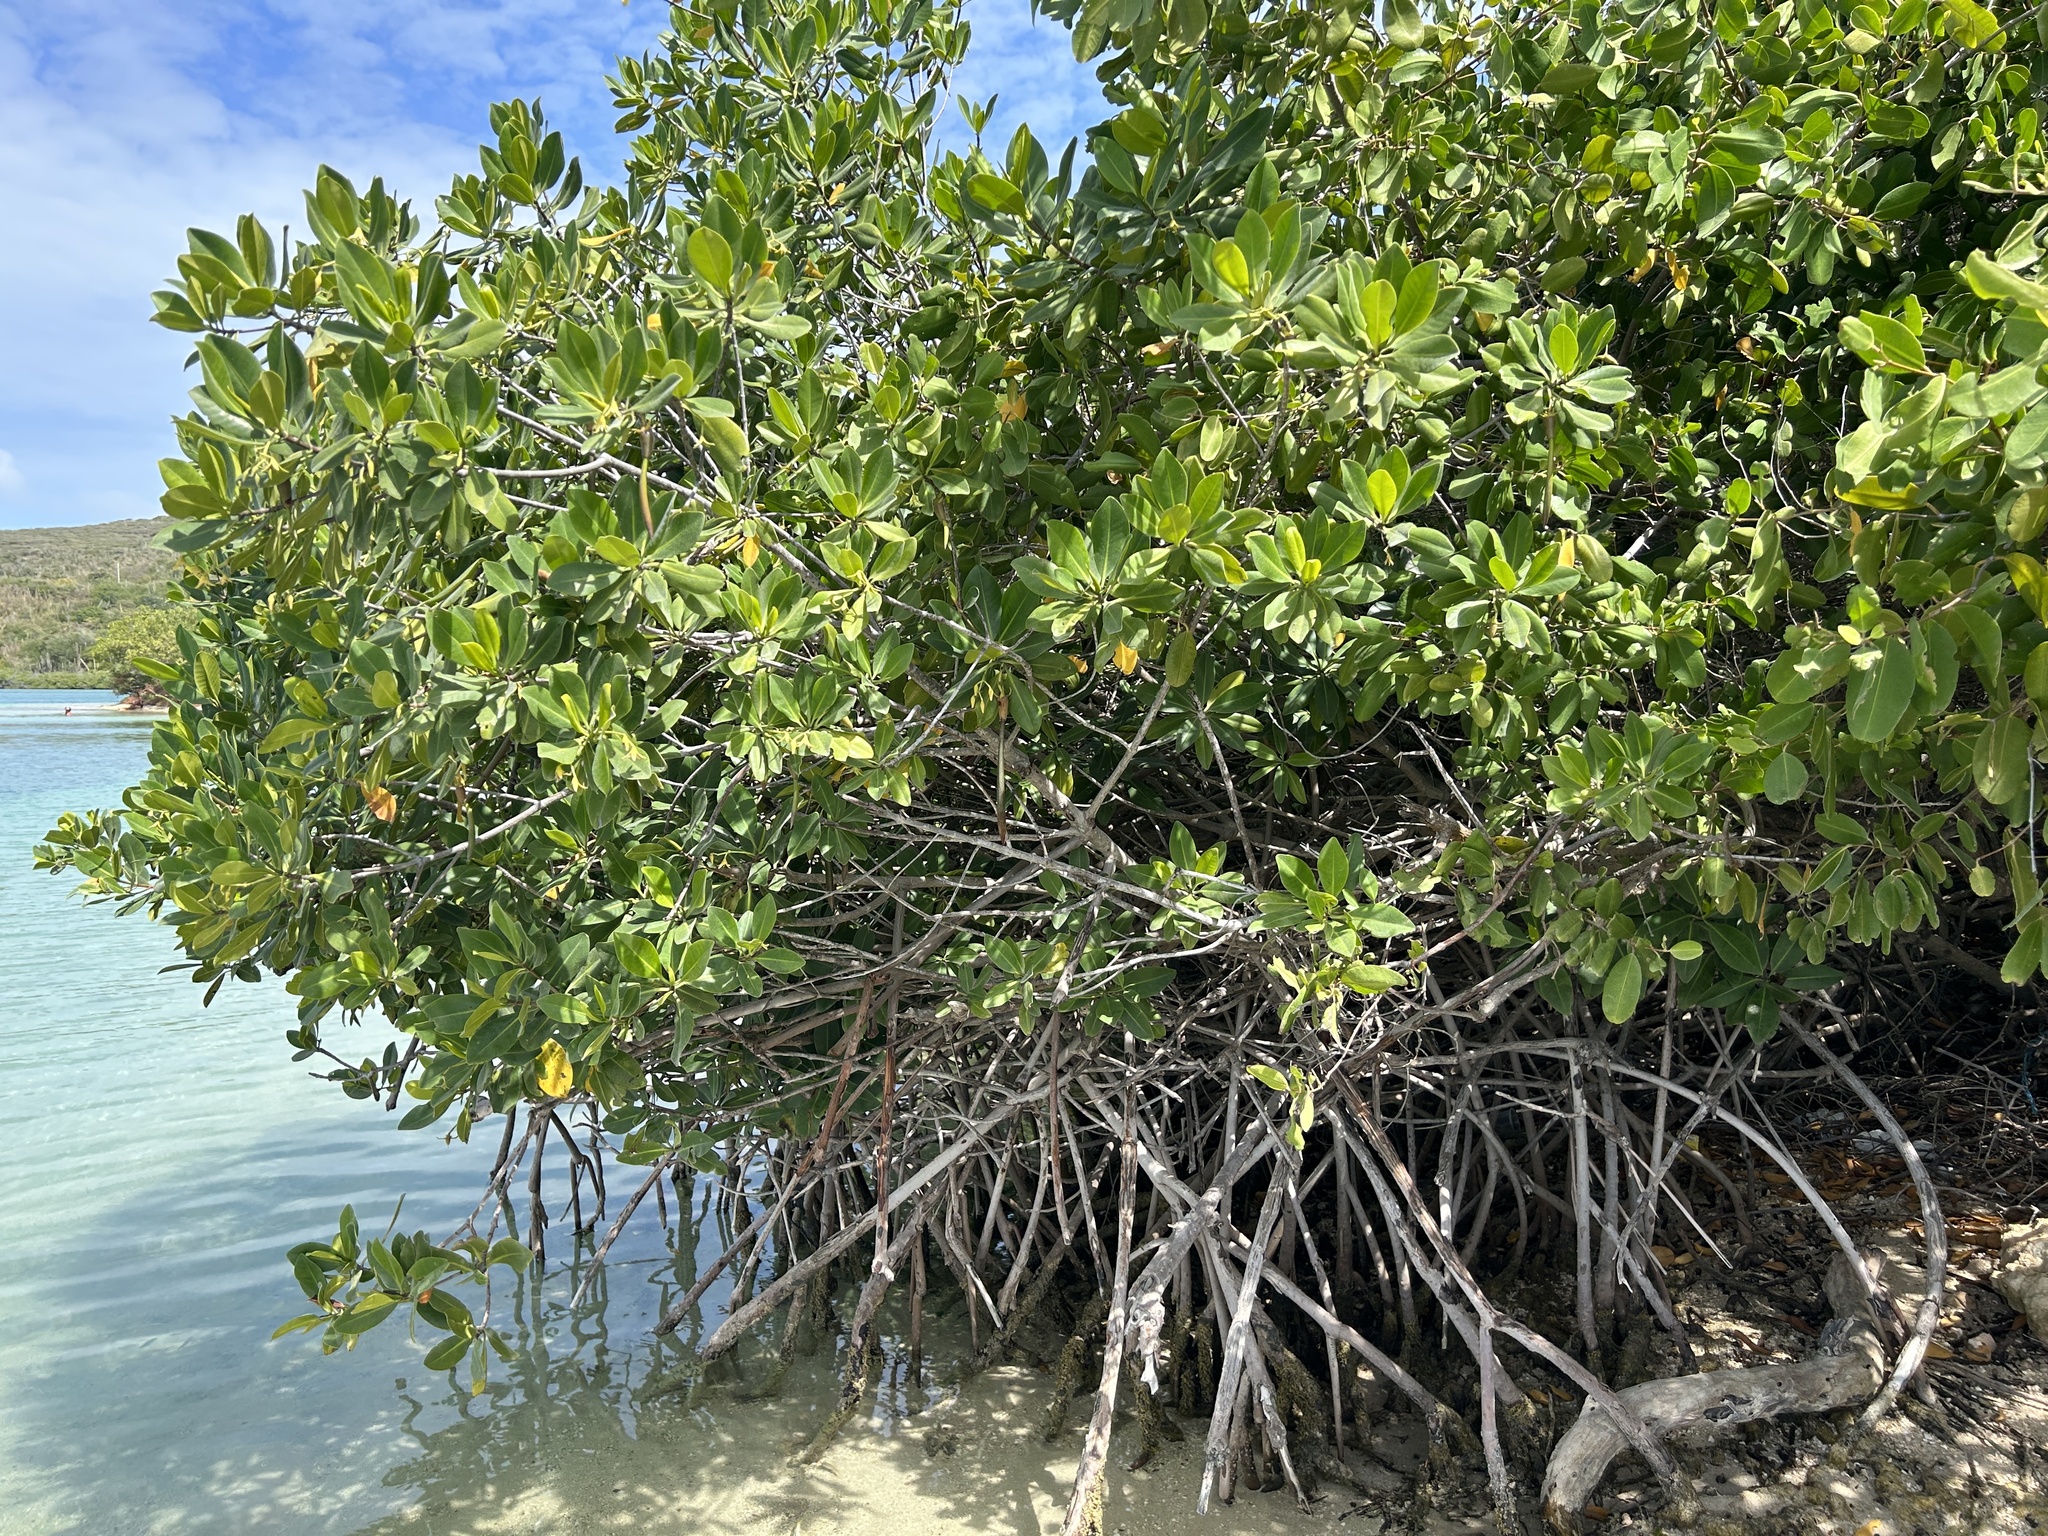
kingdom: Plantae
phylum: Tracheophyta
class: Magnoliopsida
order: Malpighiales
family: Rhizophoraceae
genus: Rhizophora
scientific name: Rhizophora mangle
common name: Red mangrove
